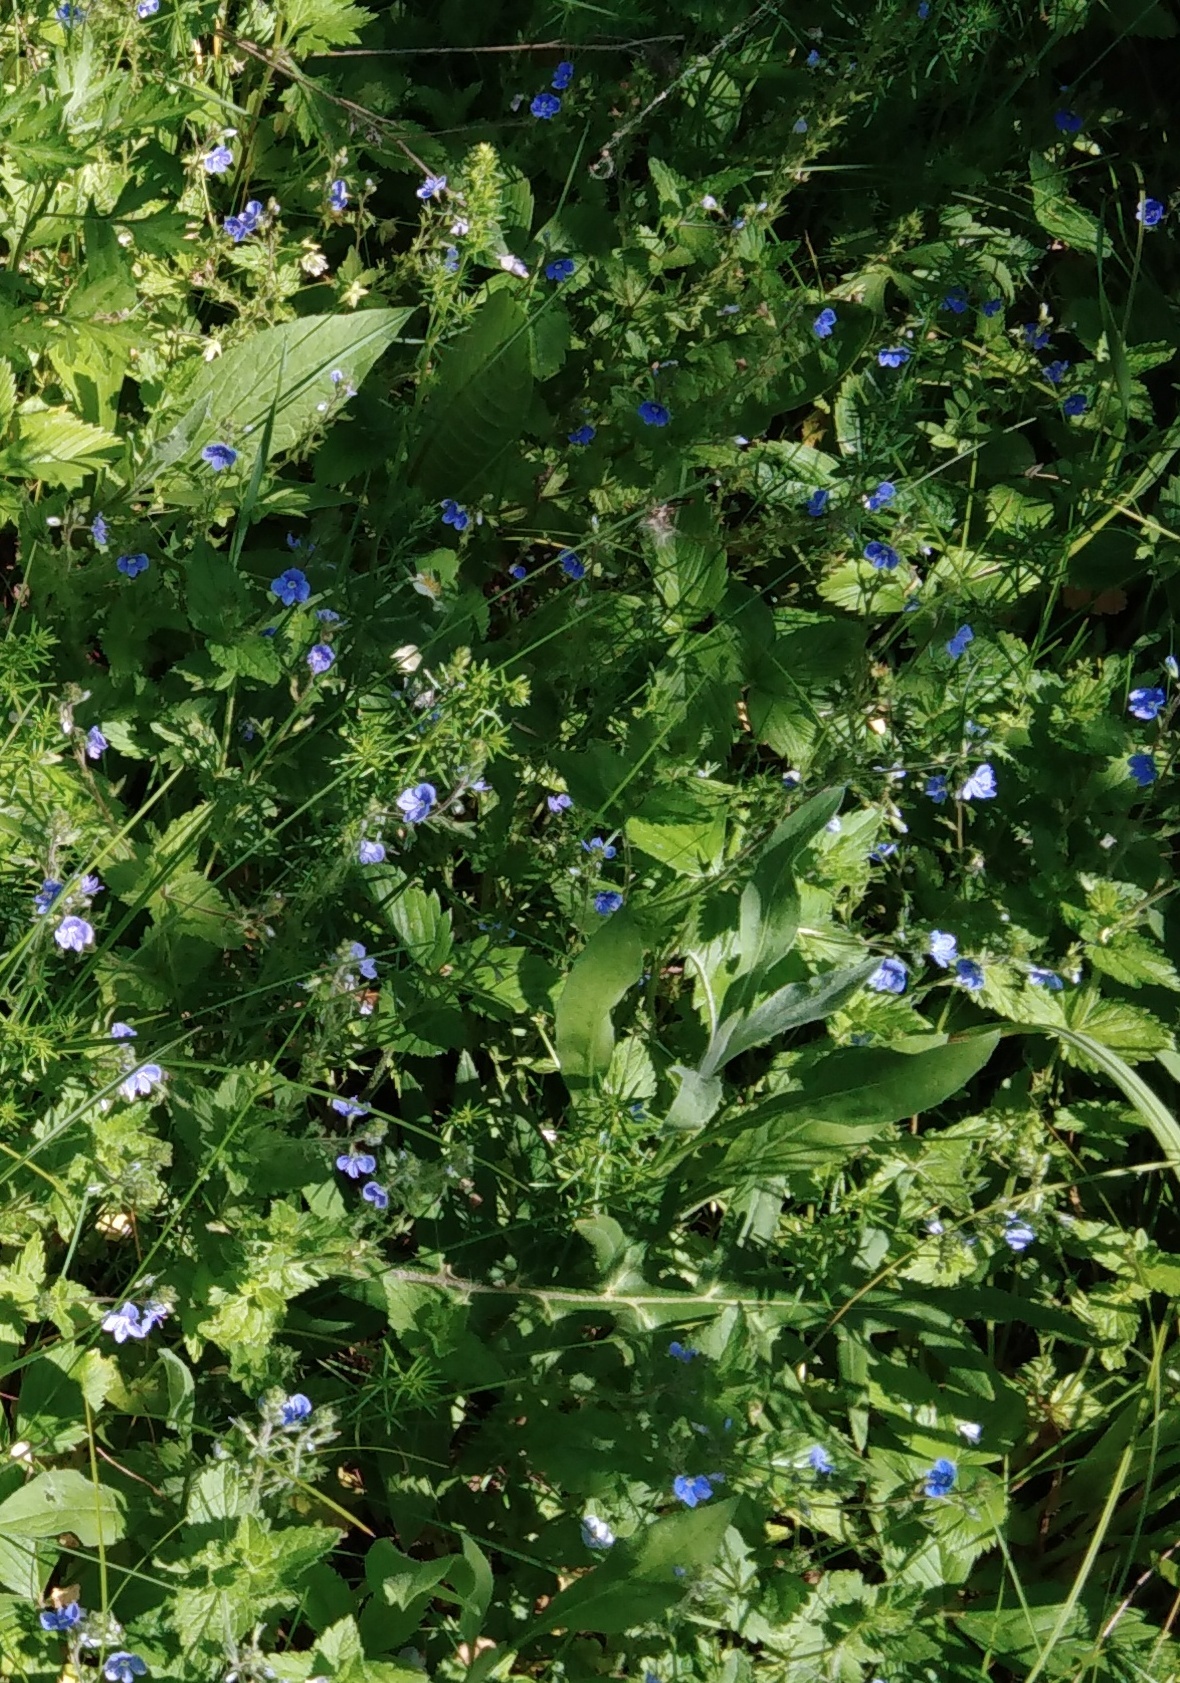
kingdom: Plantae
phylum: Tracheophyta
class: Magnoliopsida
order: Lamiales
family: Plantaginaceae
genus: Veronica
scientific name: Veronica chamaedrys
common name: Germander speedwell
